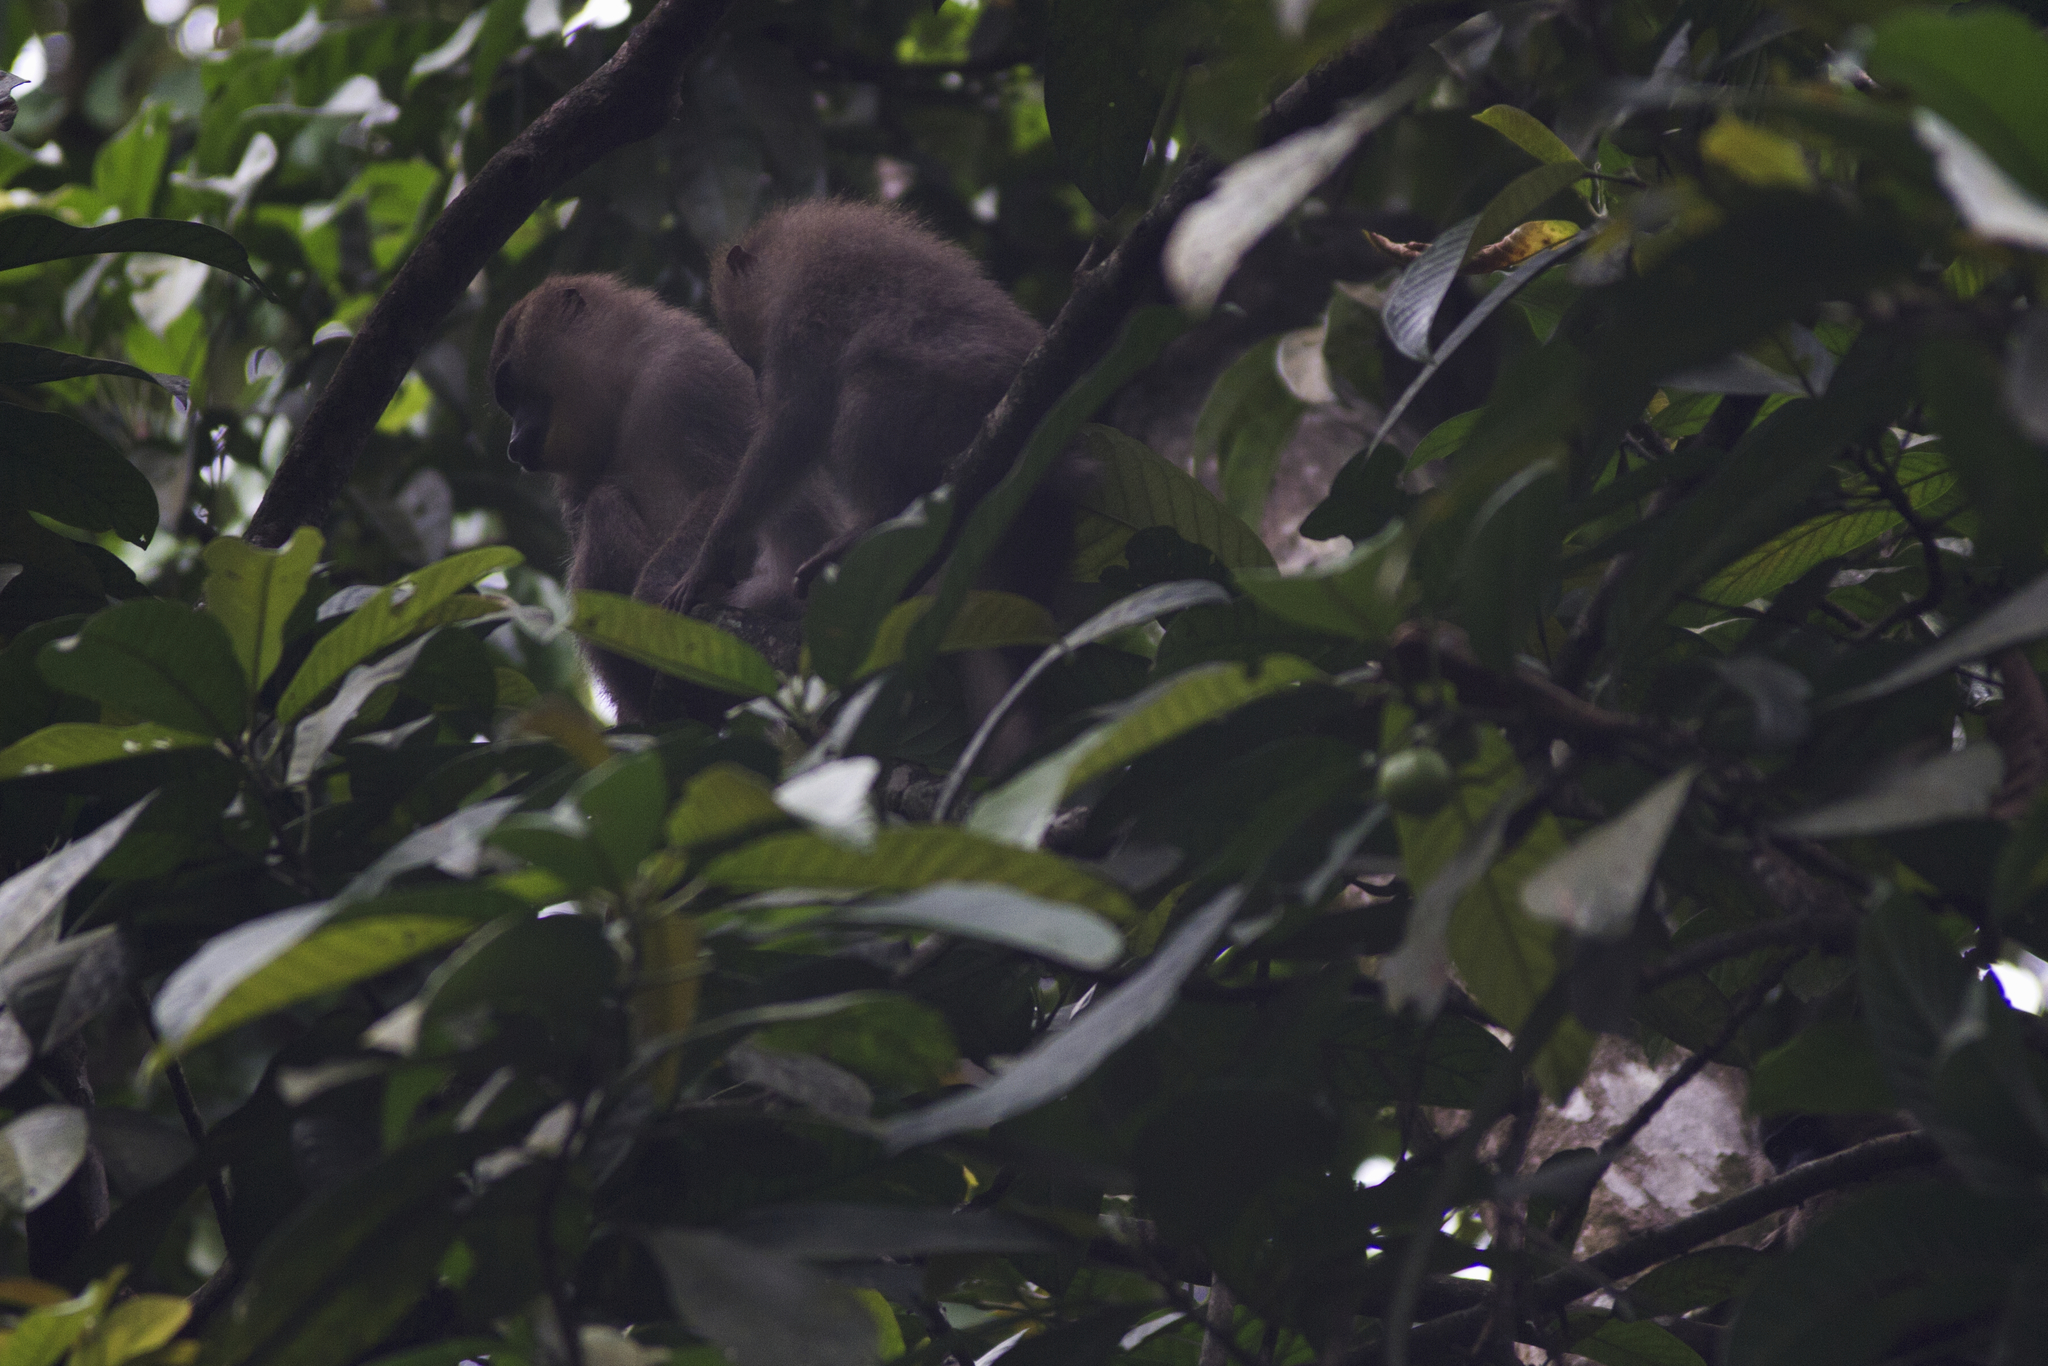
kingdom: Animalia
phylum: Chordata
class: Mammalia
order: Primates
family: Cercopithecidae
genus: Mandrillus
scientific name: Mandrillus leucophaeus
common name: Drill
